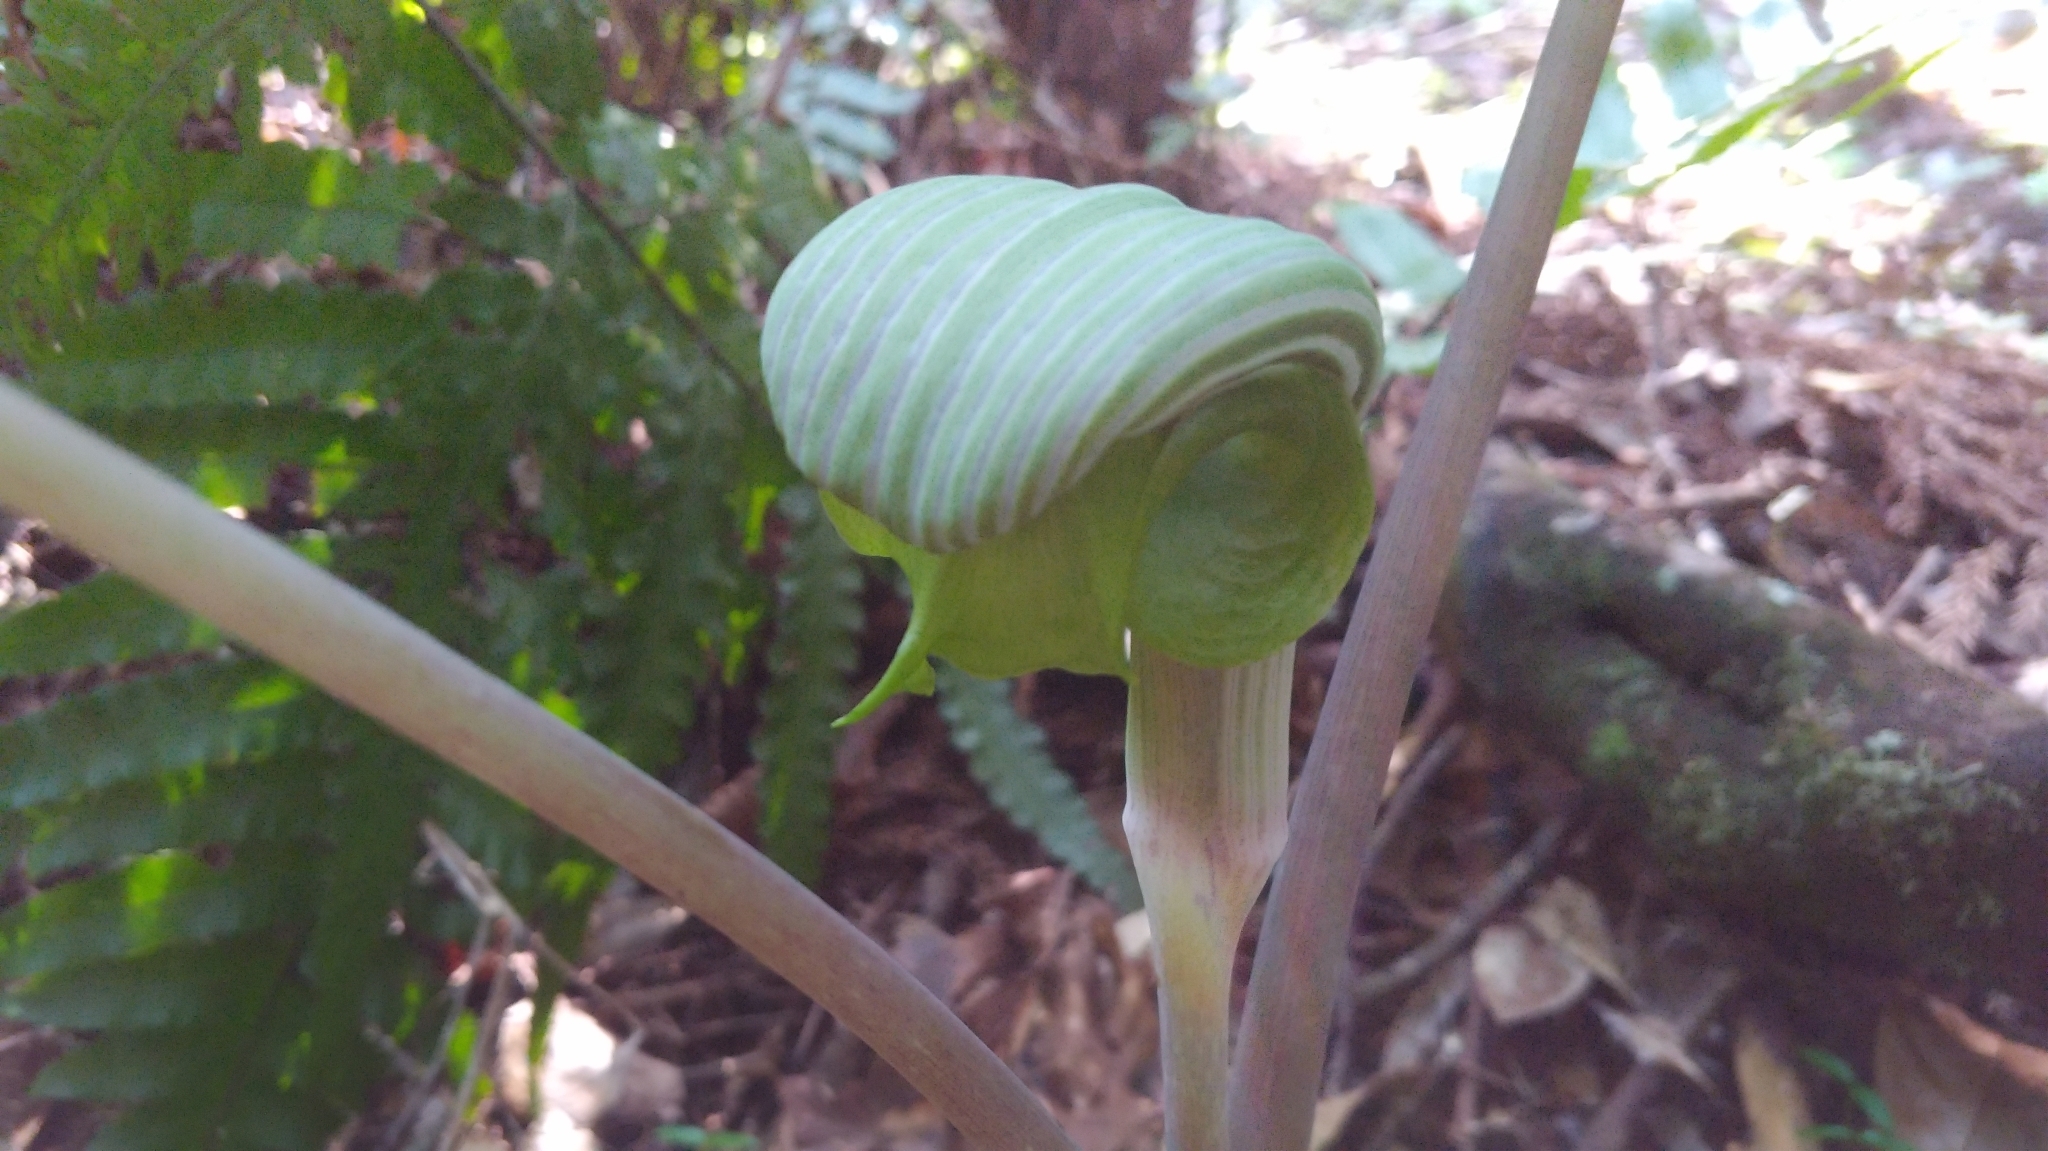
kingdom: Plantae
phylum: Tracheophyta
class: Liliopsida
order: Alismatales
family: Araceae
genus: Arisaema
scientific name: Arisaema ringens
